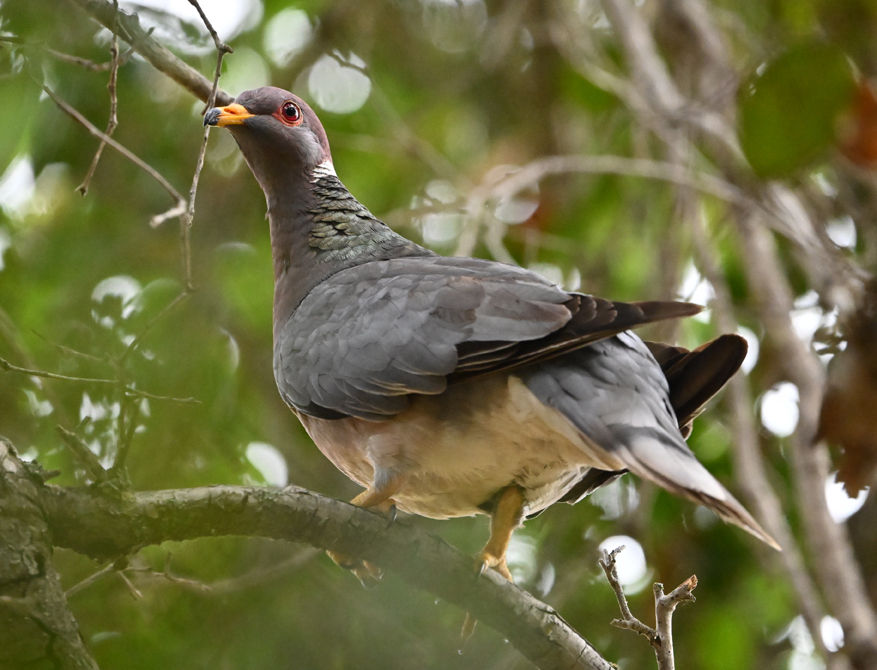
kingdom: Animalia
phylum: Chordata
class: Aves
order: Columbiformes
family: Columbidae
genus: Patagioenas
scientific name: Patagioenas fasciata
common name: Band-tailed pigeon
